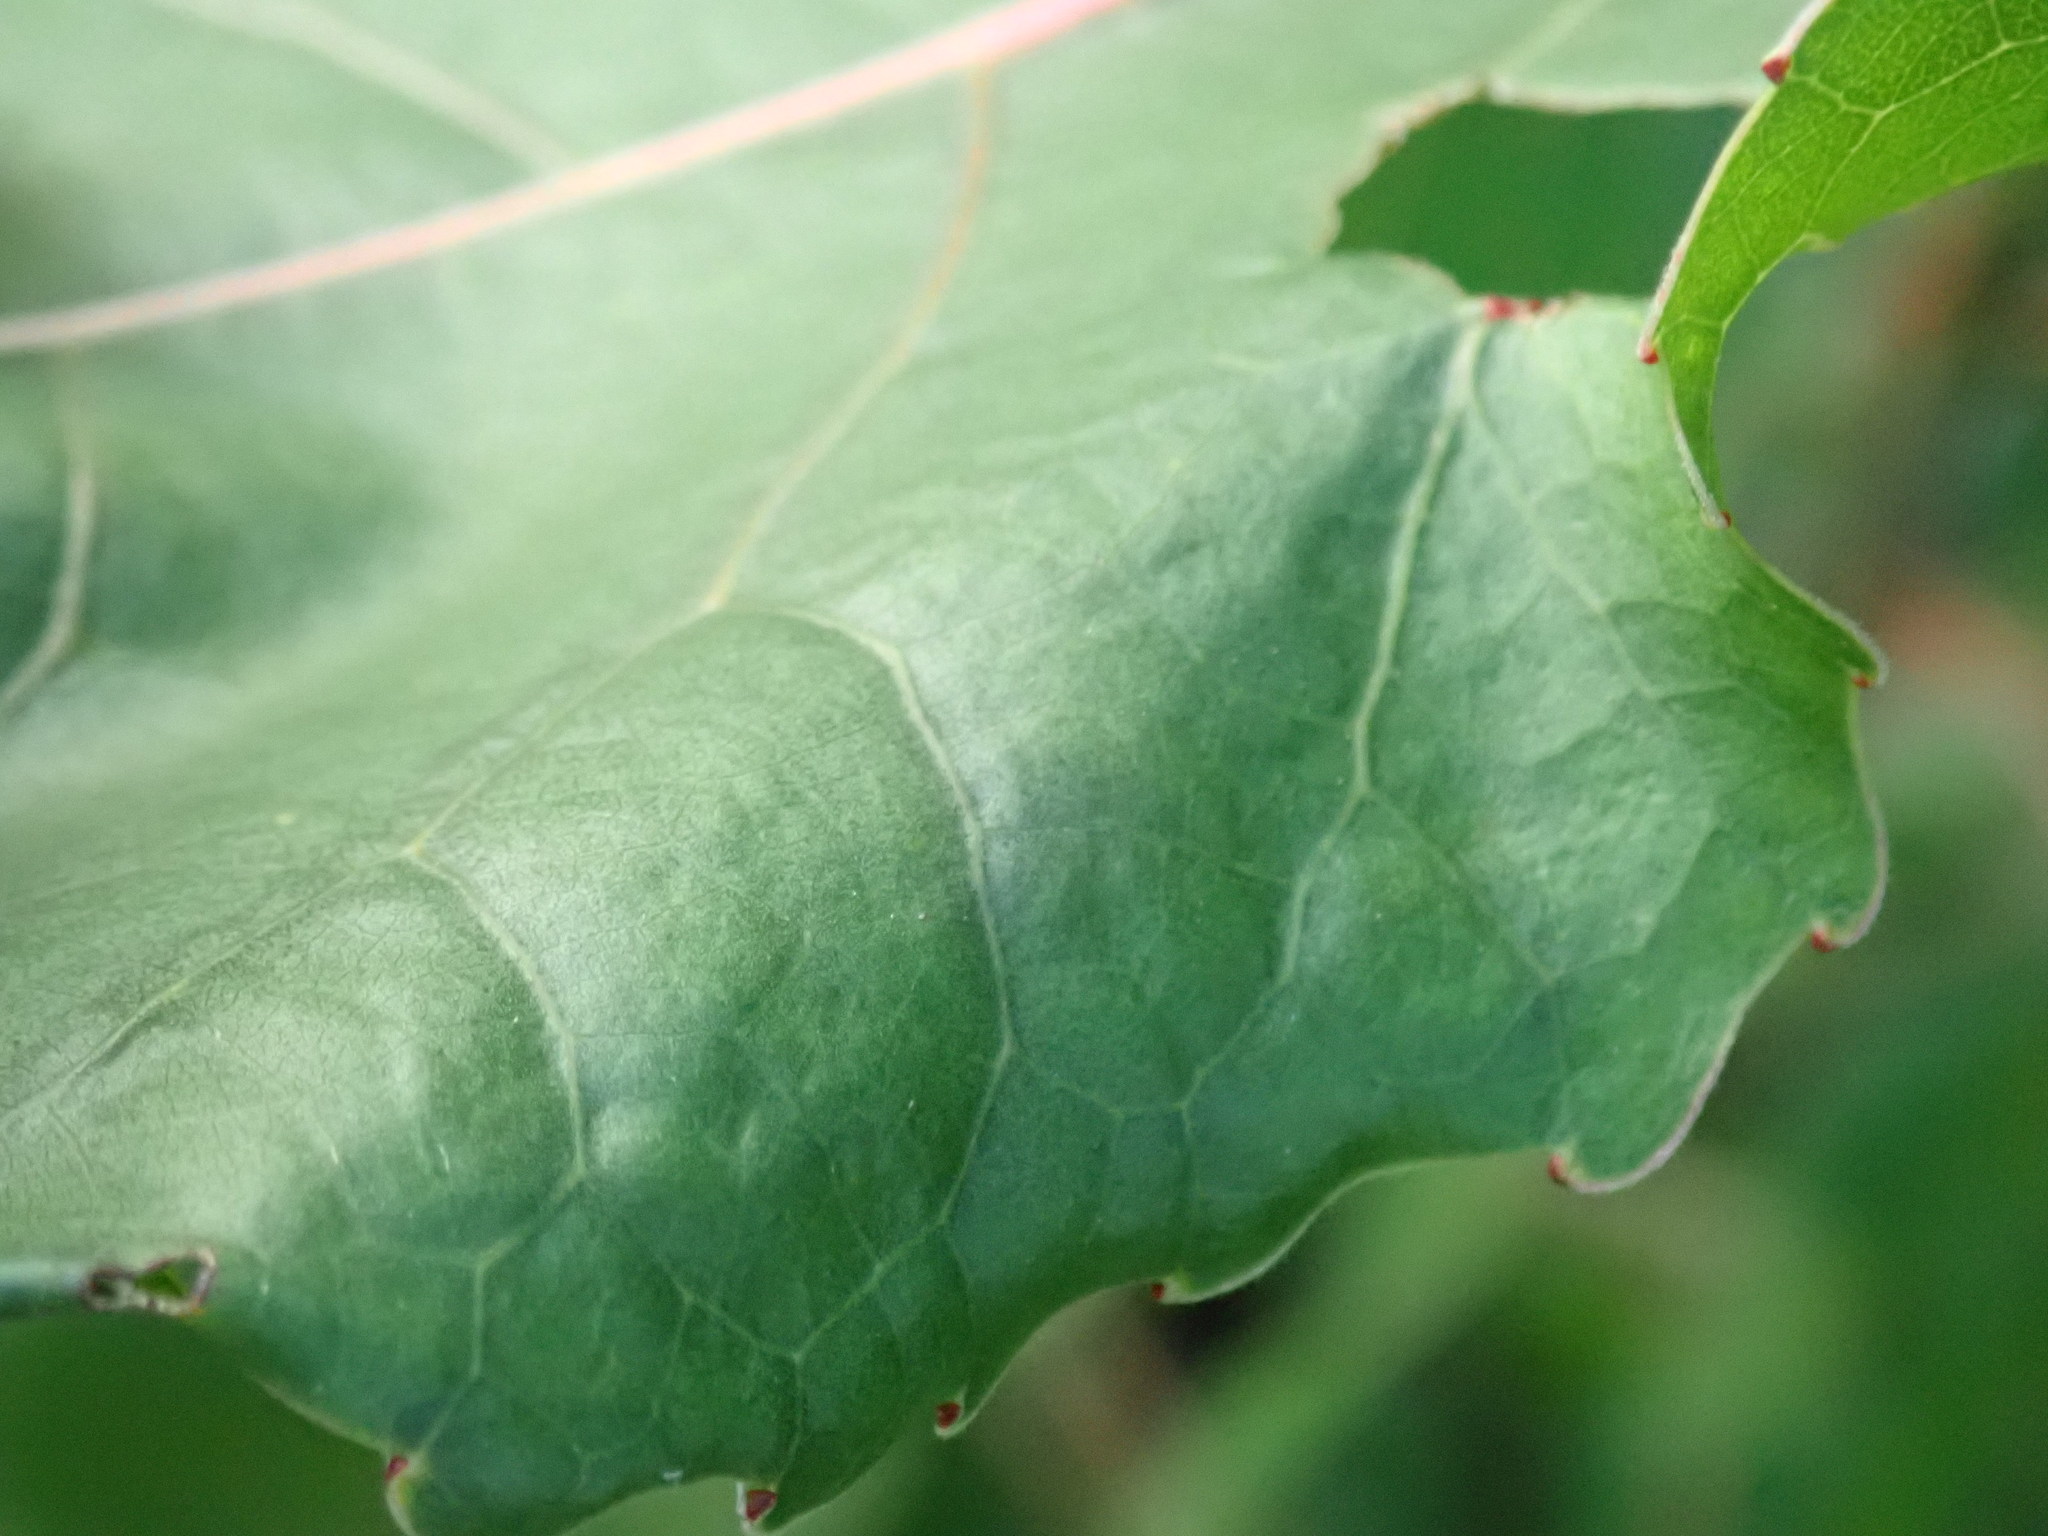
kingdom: Animalia
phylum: Arthropoda
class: Insecta
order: Lepidoptera
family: Gracillariidae
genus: Phyllocnistis
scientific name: Phyllocnistis populiella
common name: Aspen serpentine leafminer moth
